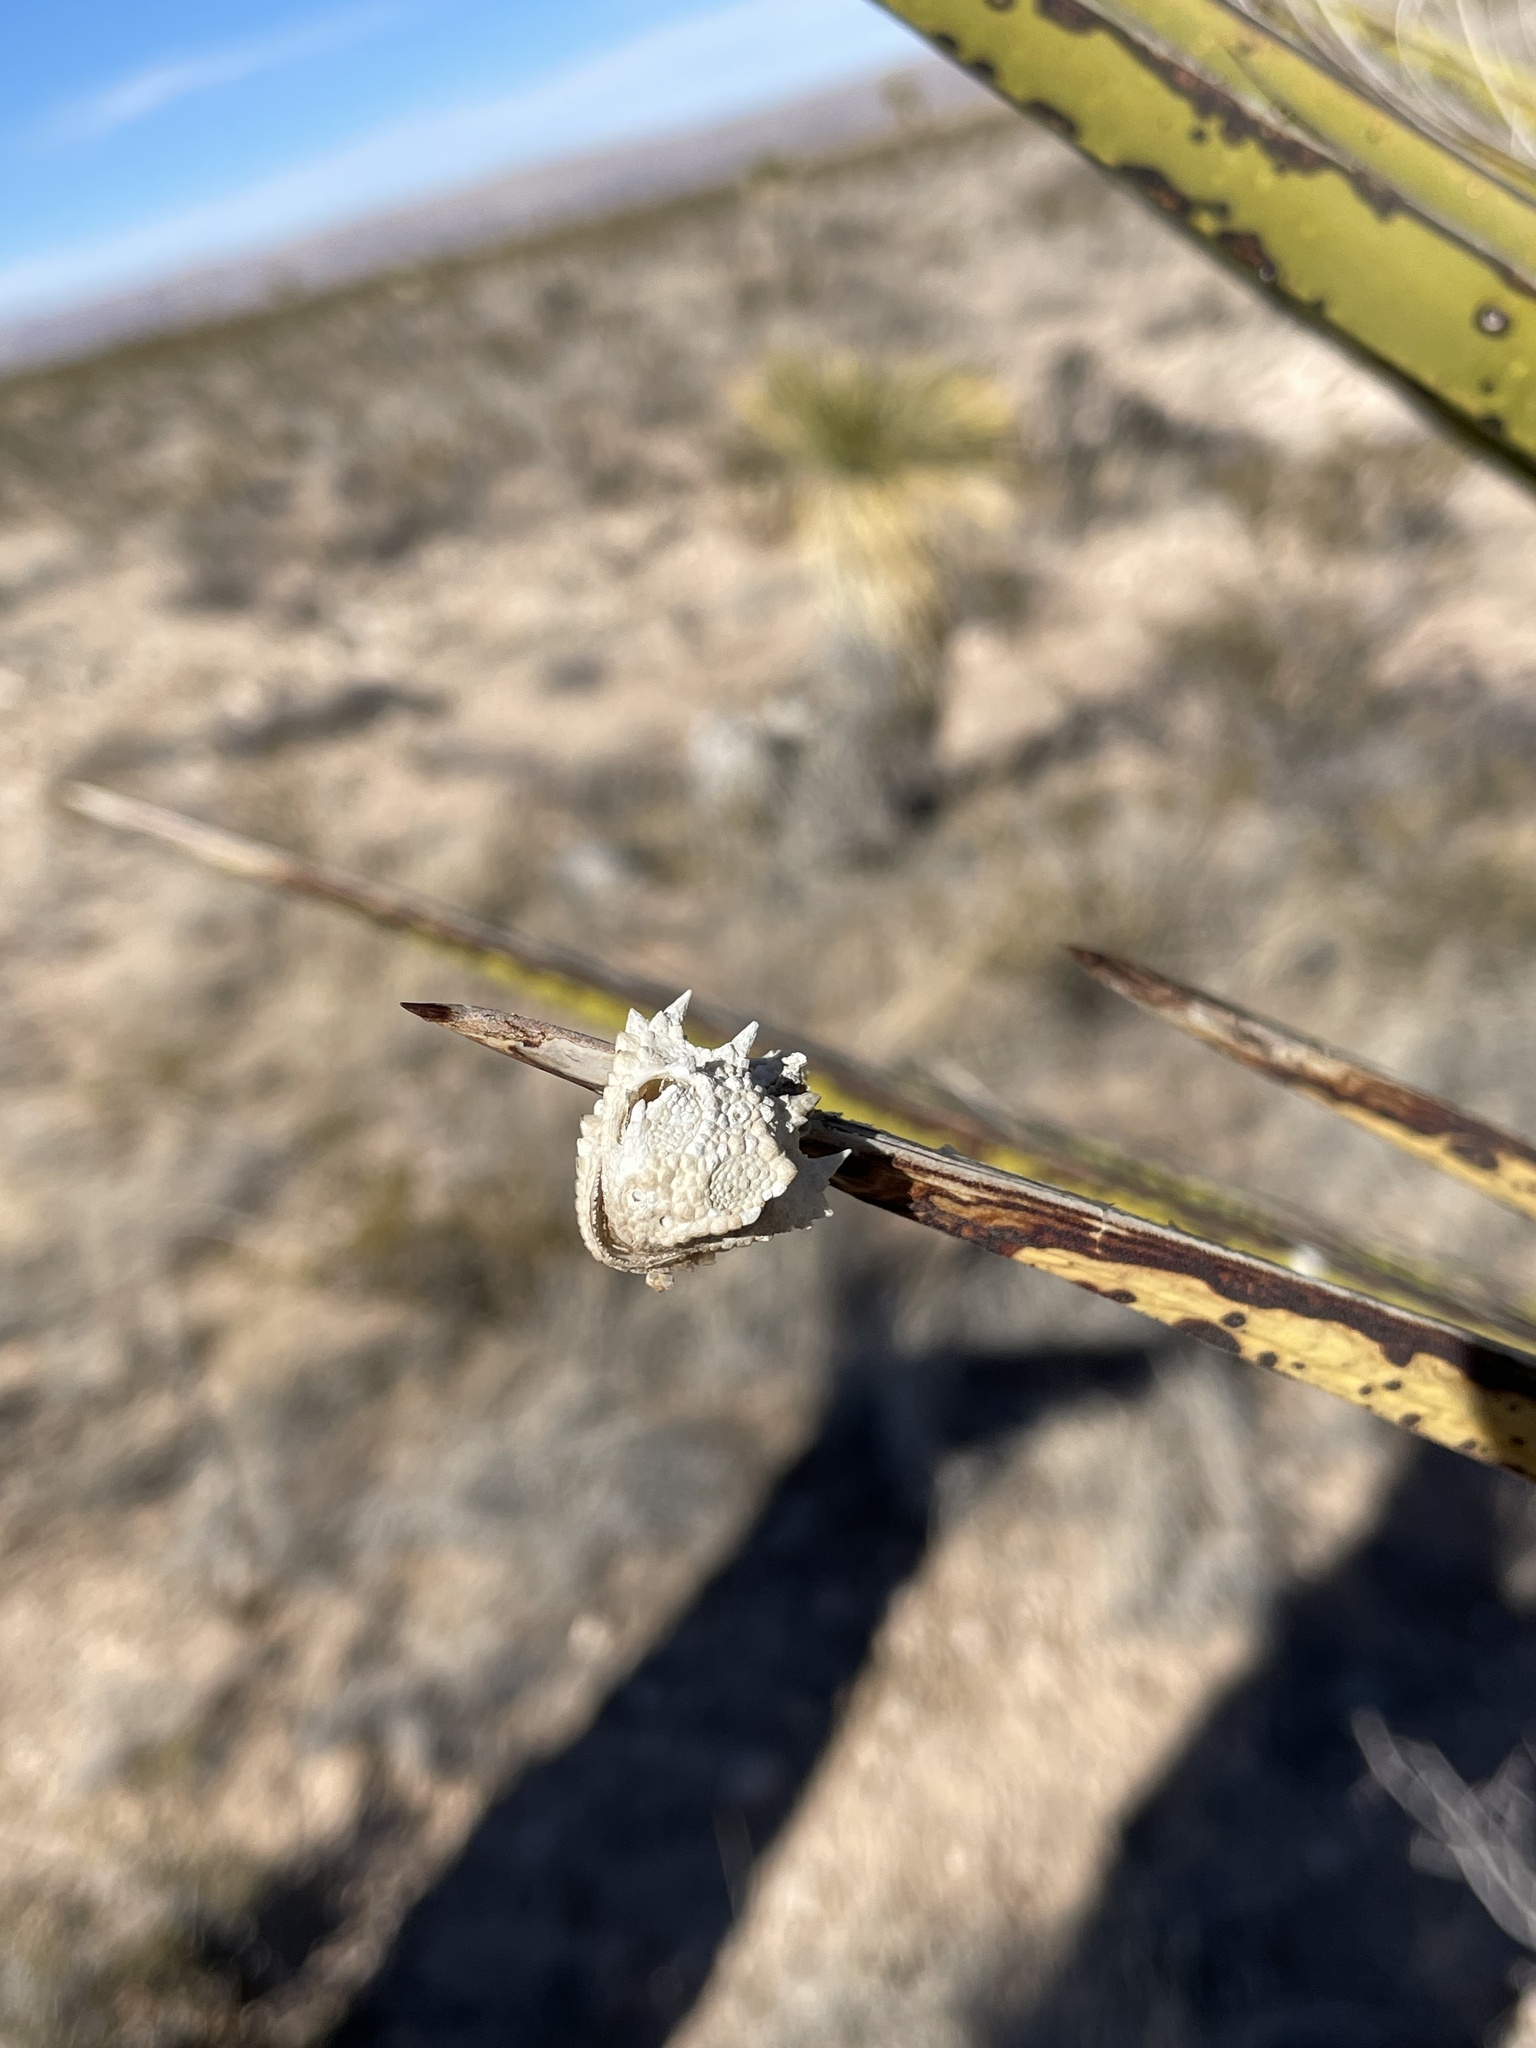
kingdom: Animalia
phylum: Chordata
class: Squamata
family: Phrynosomatidae
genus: Phrynosoma
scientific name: Phrynosoma modestum
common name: Roundtail horned lizard
